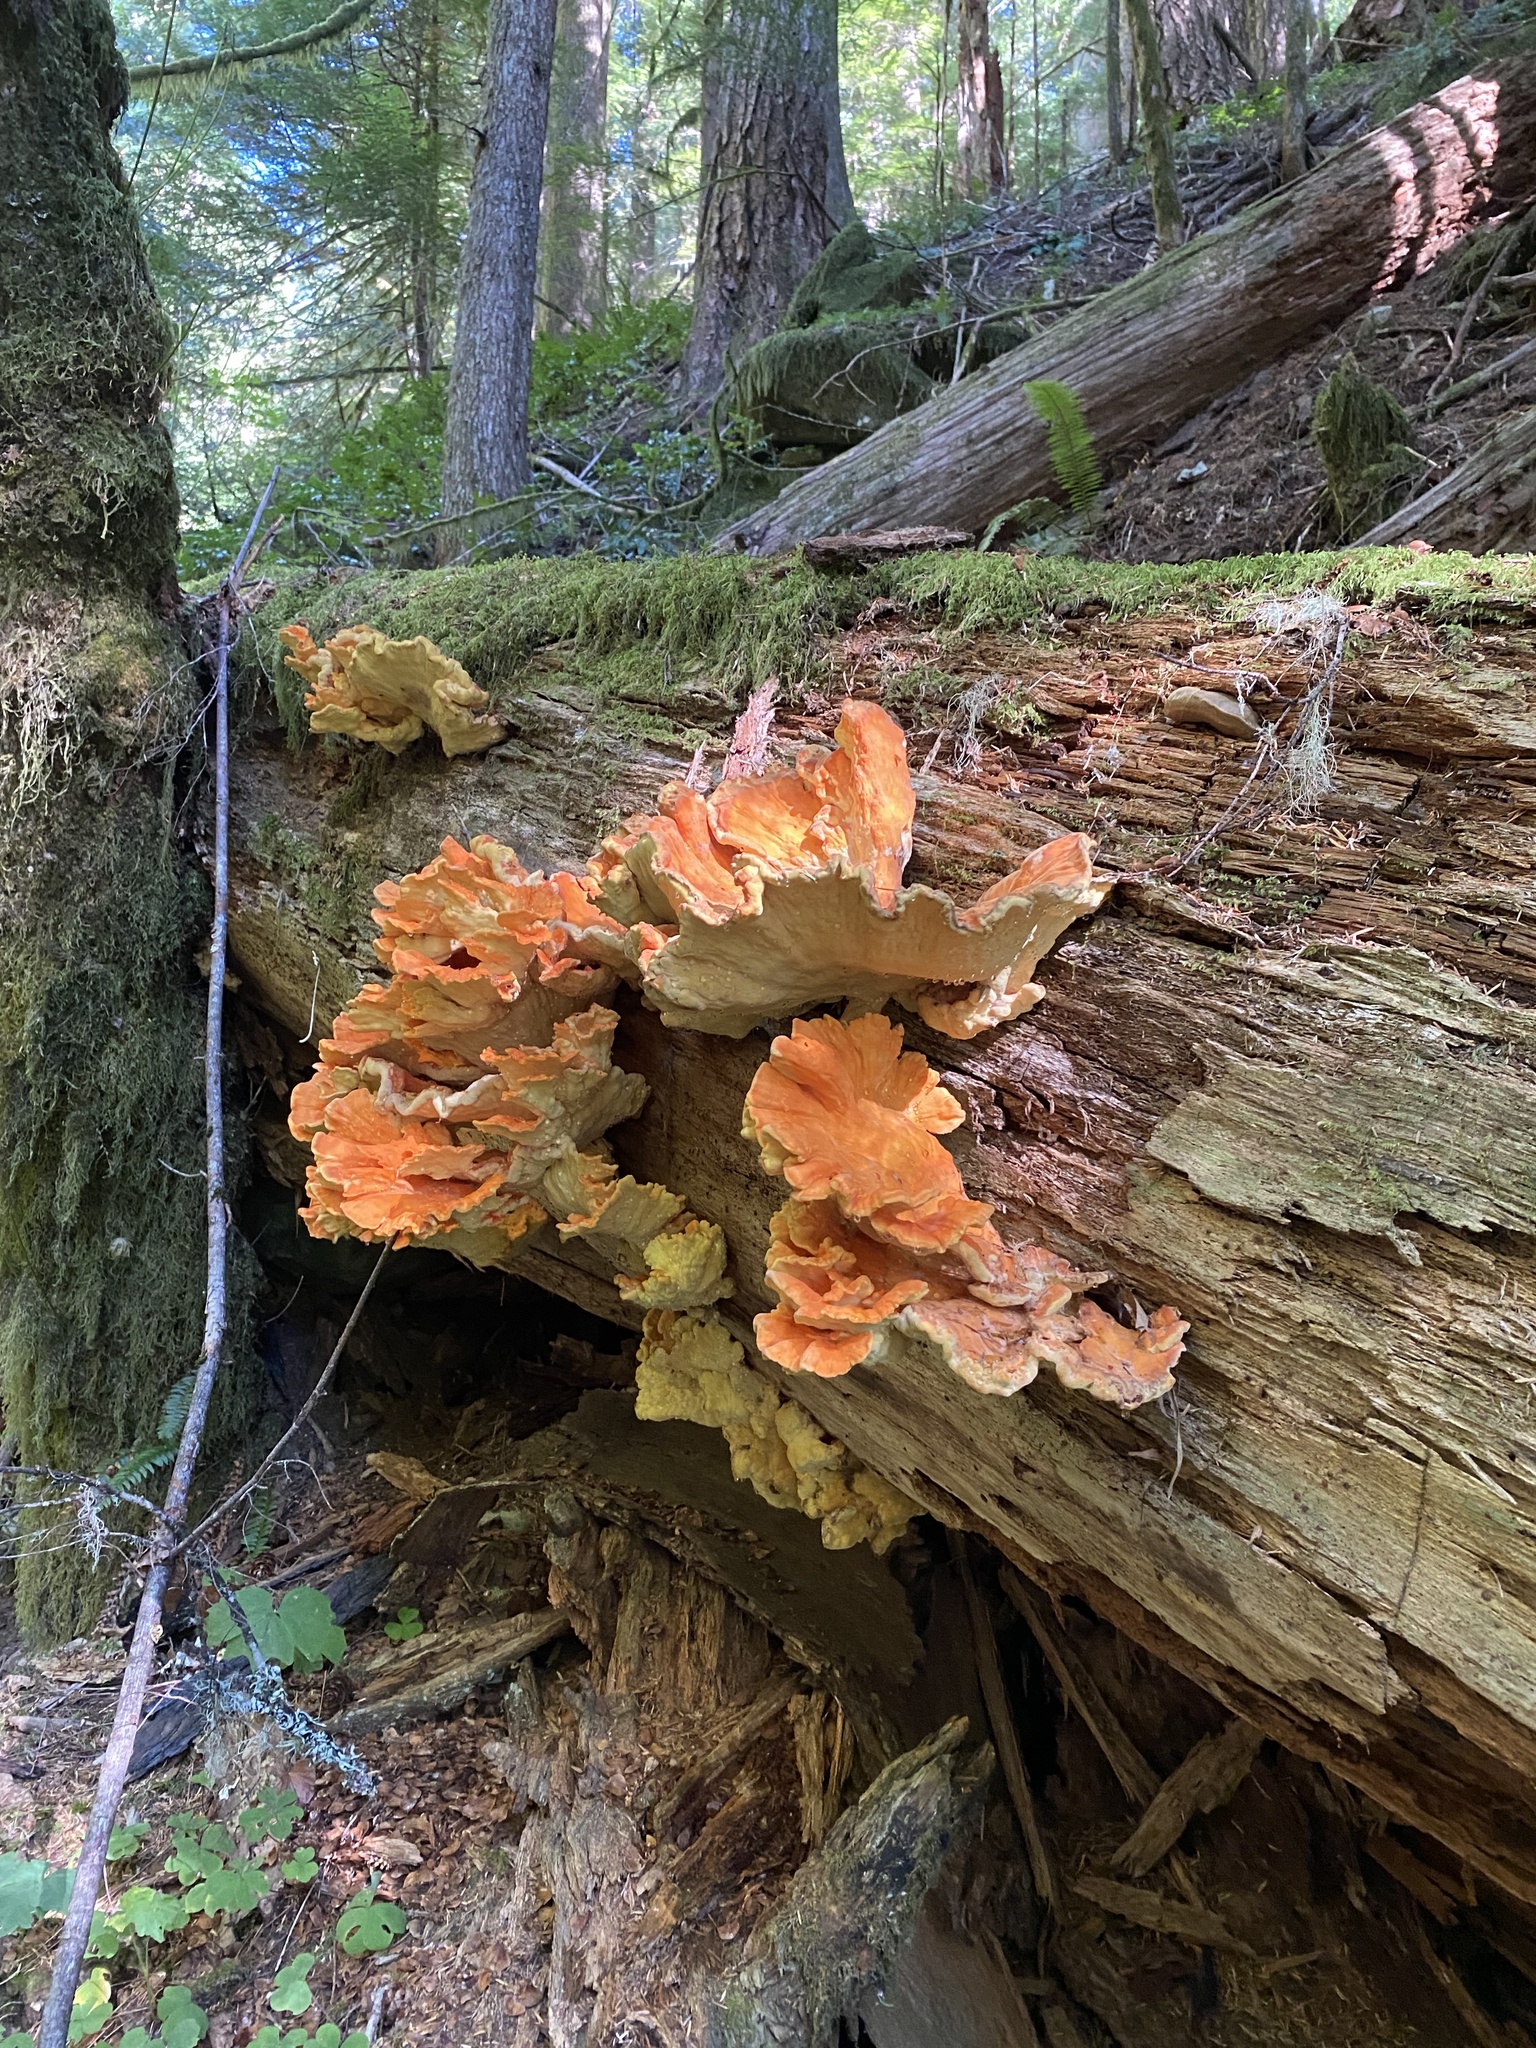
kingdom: Fungi
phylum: Basidiomycota
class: Agaricomycetes
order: Polyporales
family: Laetiporaceae
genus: Laetiporus
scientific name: Laetiporus conifericola
